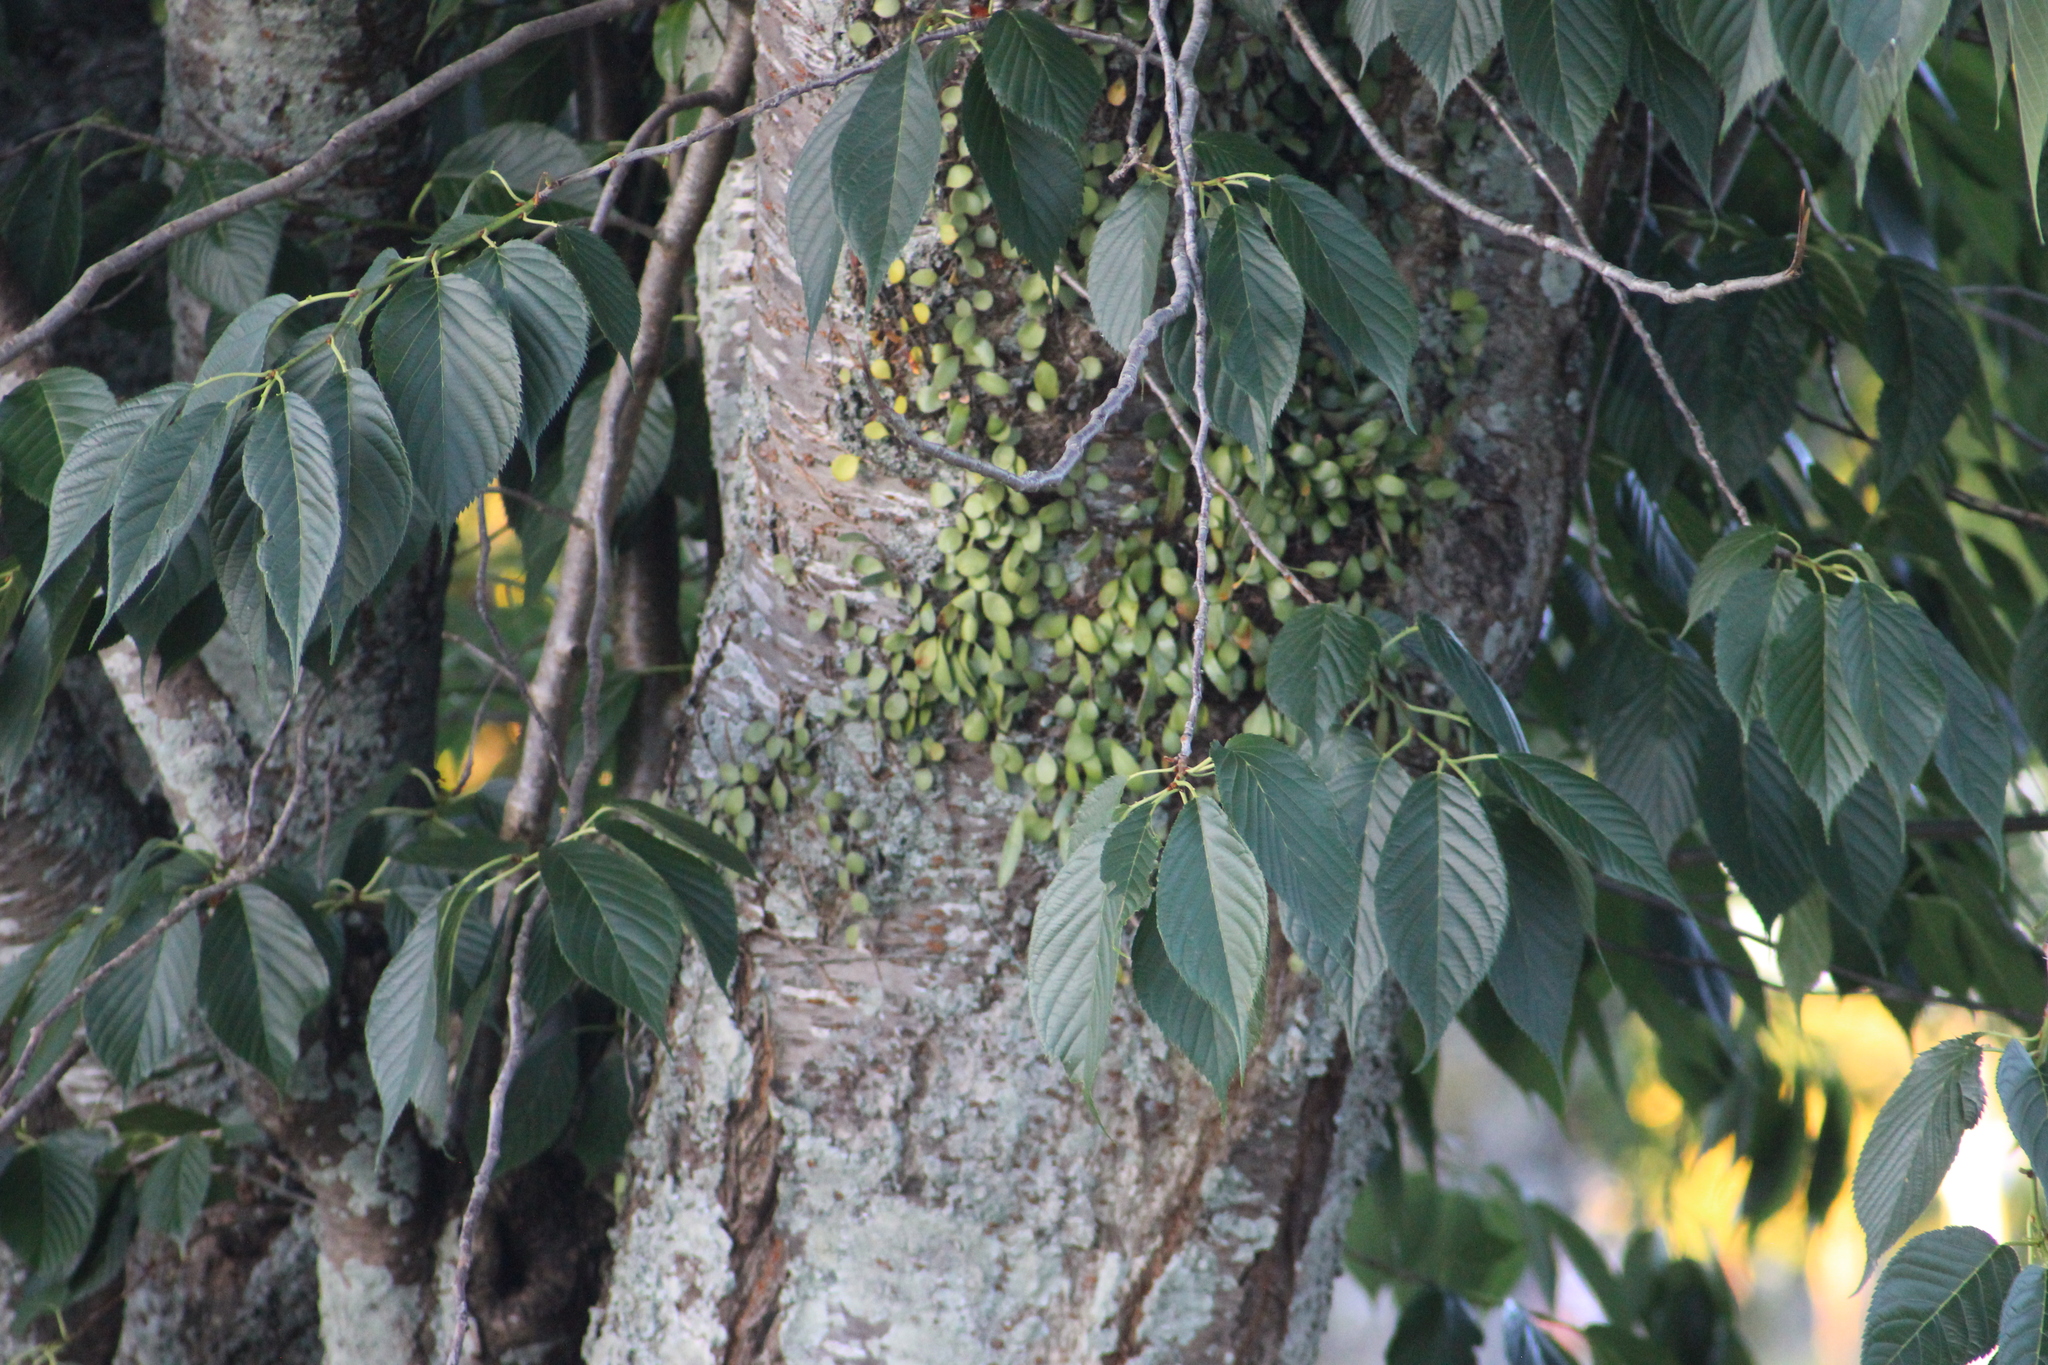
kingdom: Plantae
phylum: Tracheophyta
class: Polypodiopsida
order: Polypodiales
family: Polypodiaceae
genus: Pyrrosia
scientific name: Pyrrosia eleagnifolia
